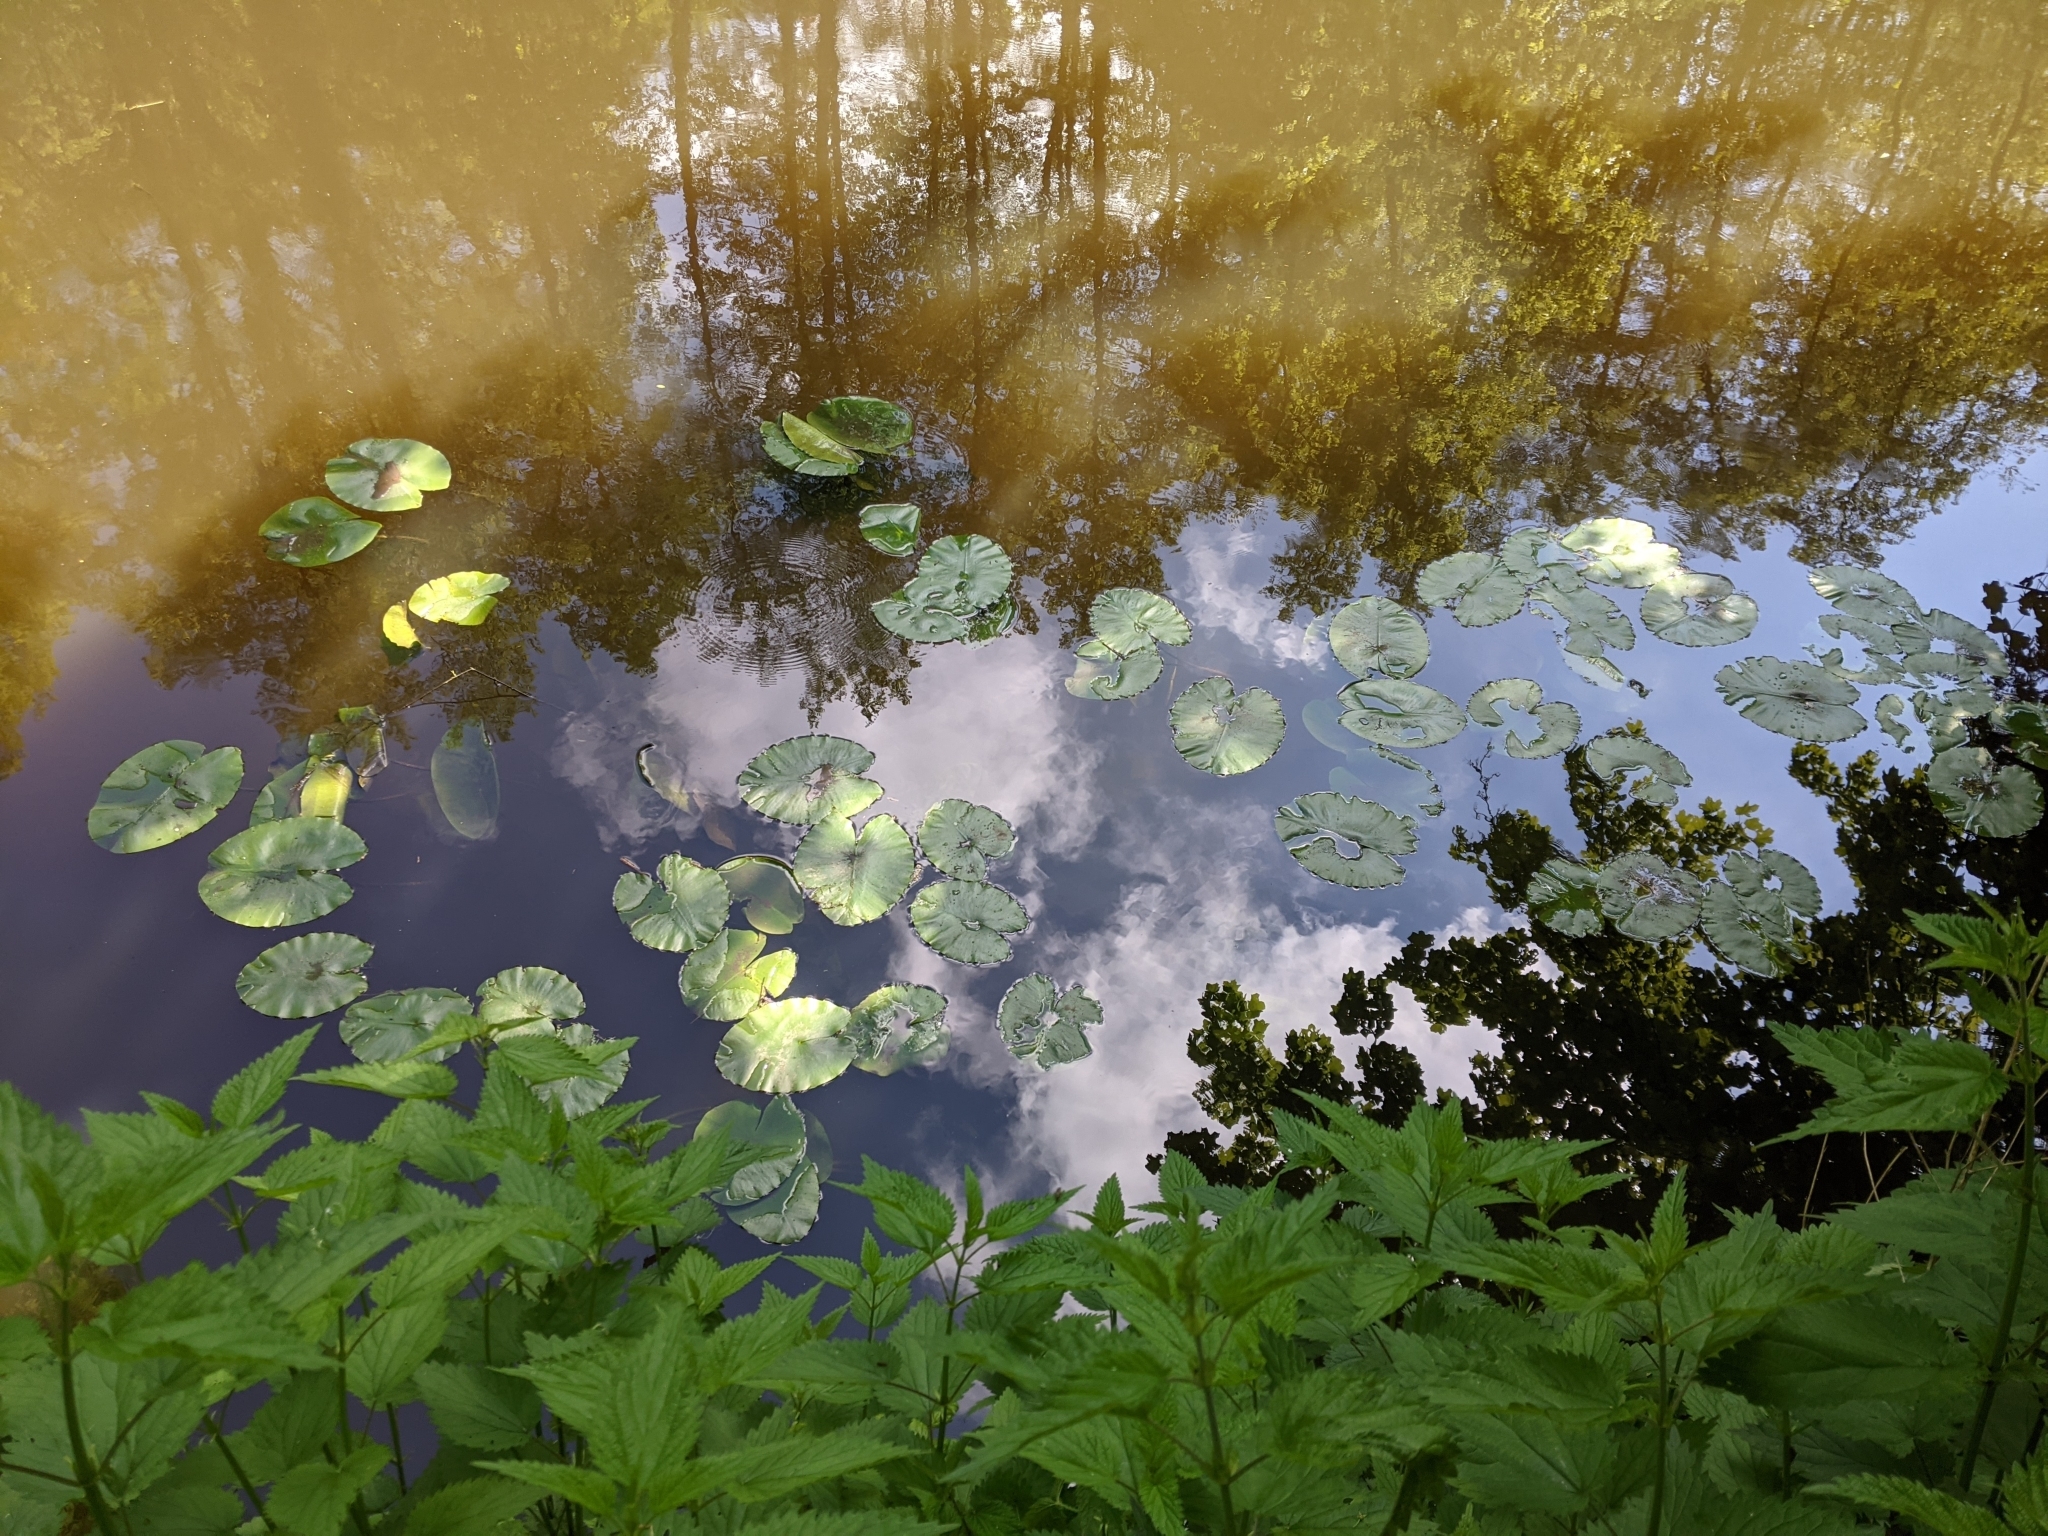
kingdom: Plantae
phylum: Tracheophyta
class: Magnoliopsida
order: Nymphaeales
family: Nymphaeaceae
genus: Nuphar
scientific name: Nuphar lutea
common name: Yellow water-lily
